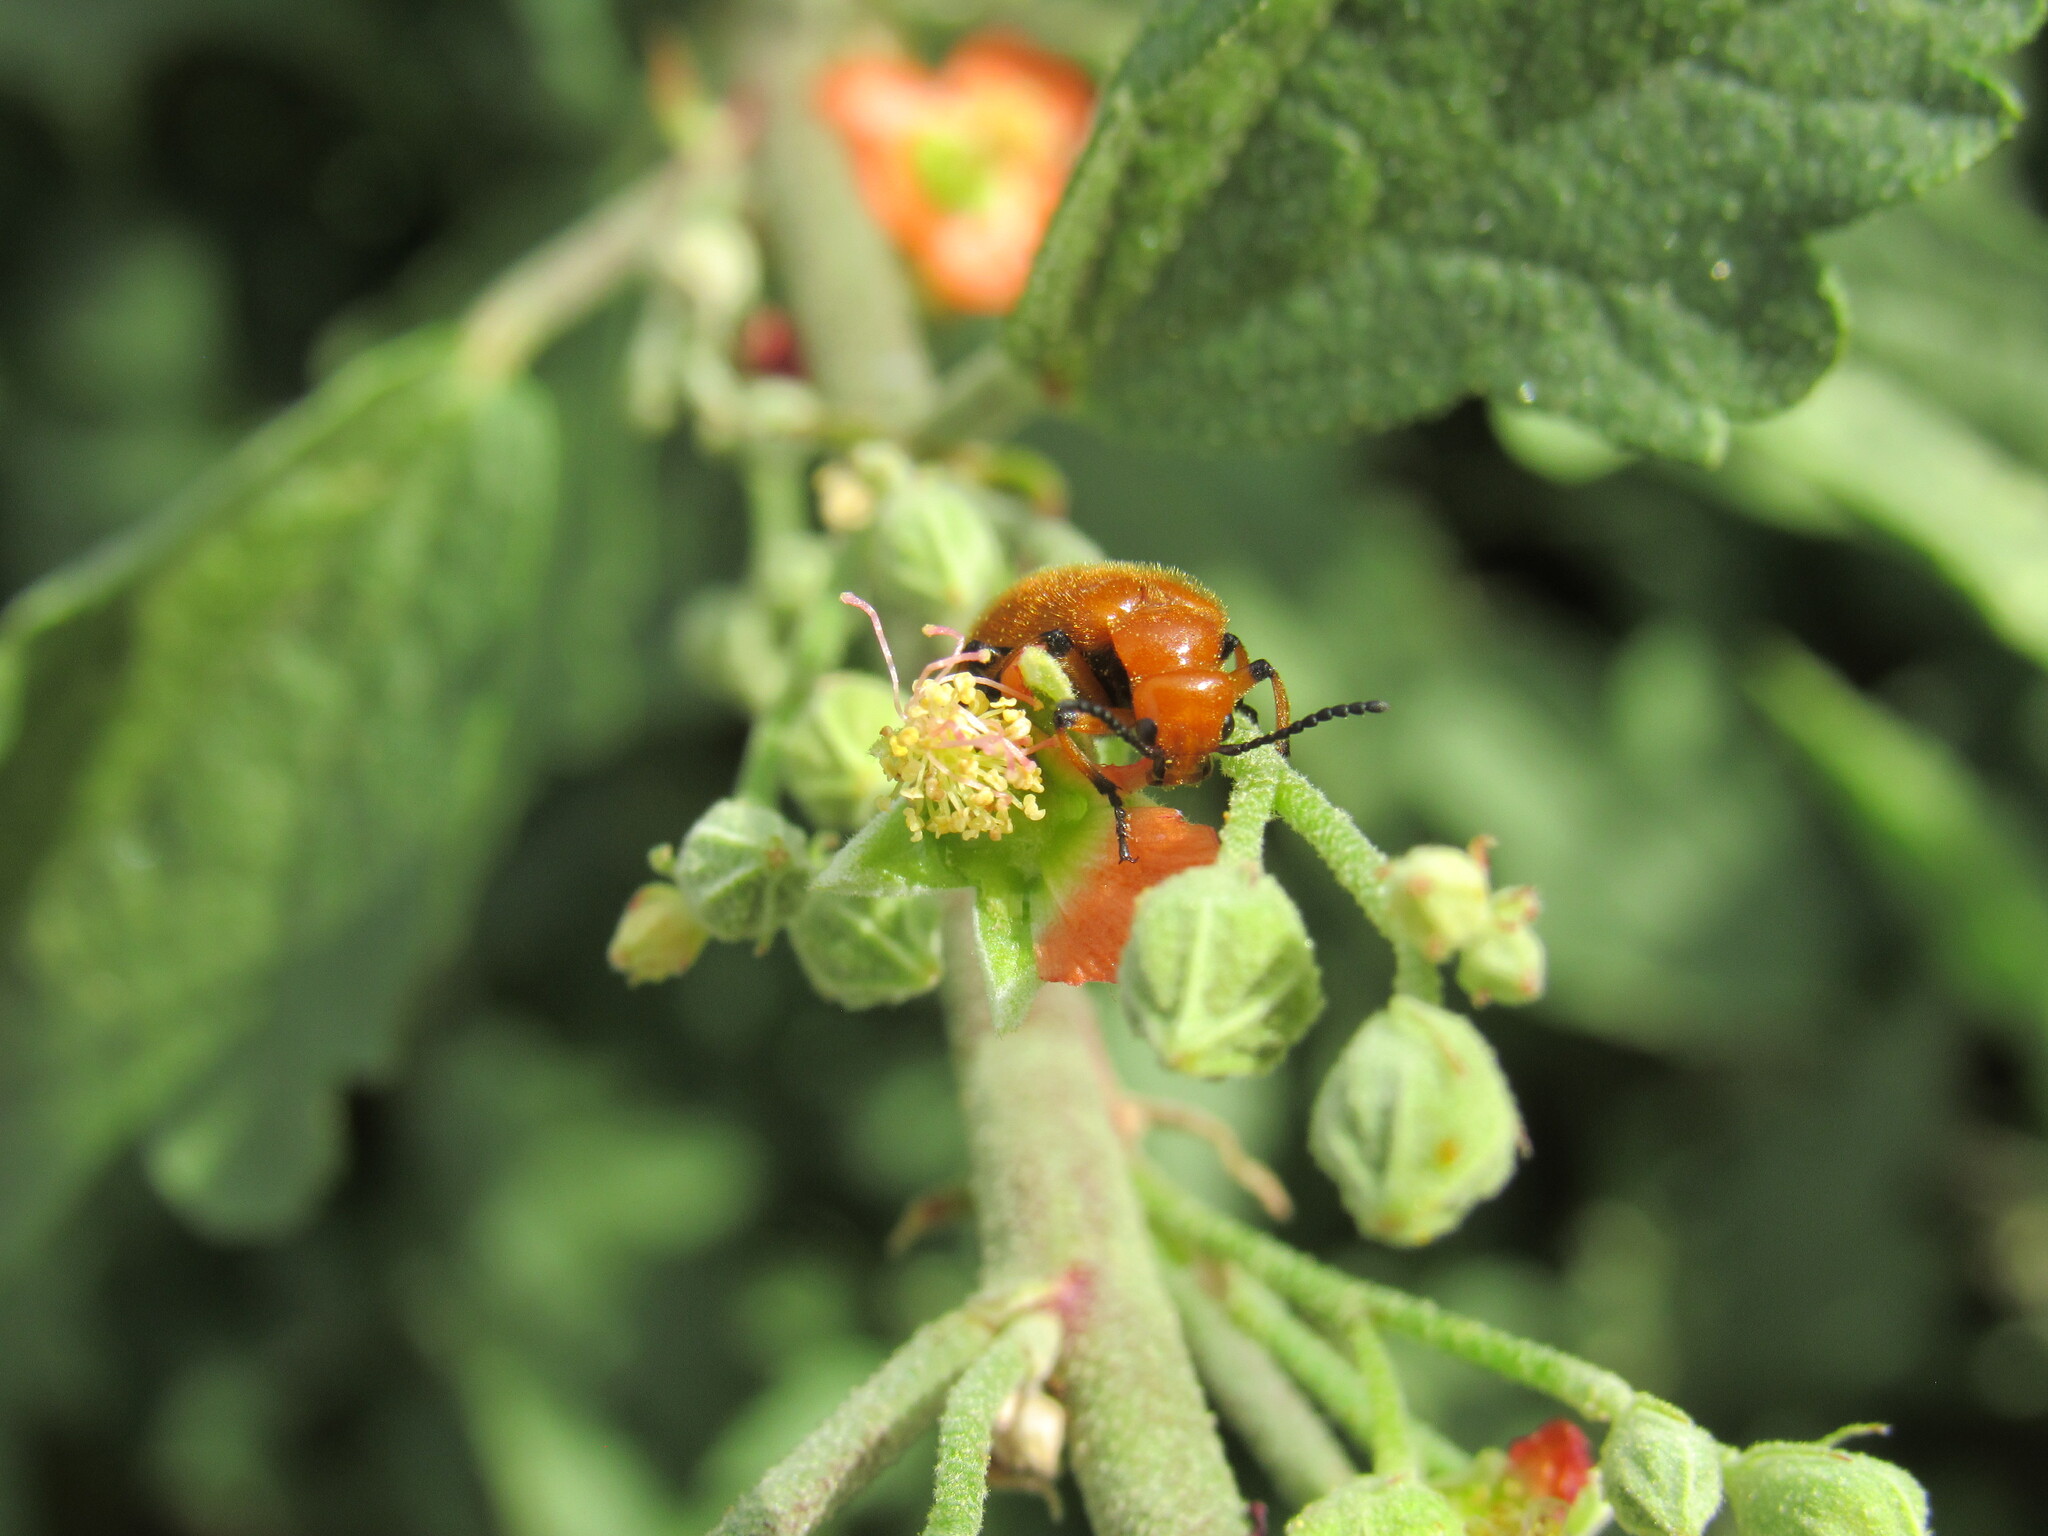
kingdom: Animalia
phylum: Arthropoda
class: Insecta
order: Coleoptera
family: Meloidae
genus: Tetraonyx
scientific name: Tetraonyx fulva
